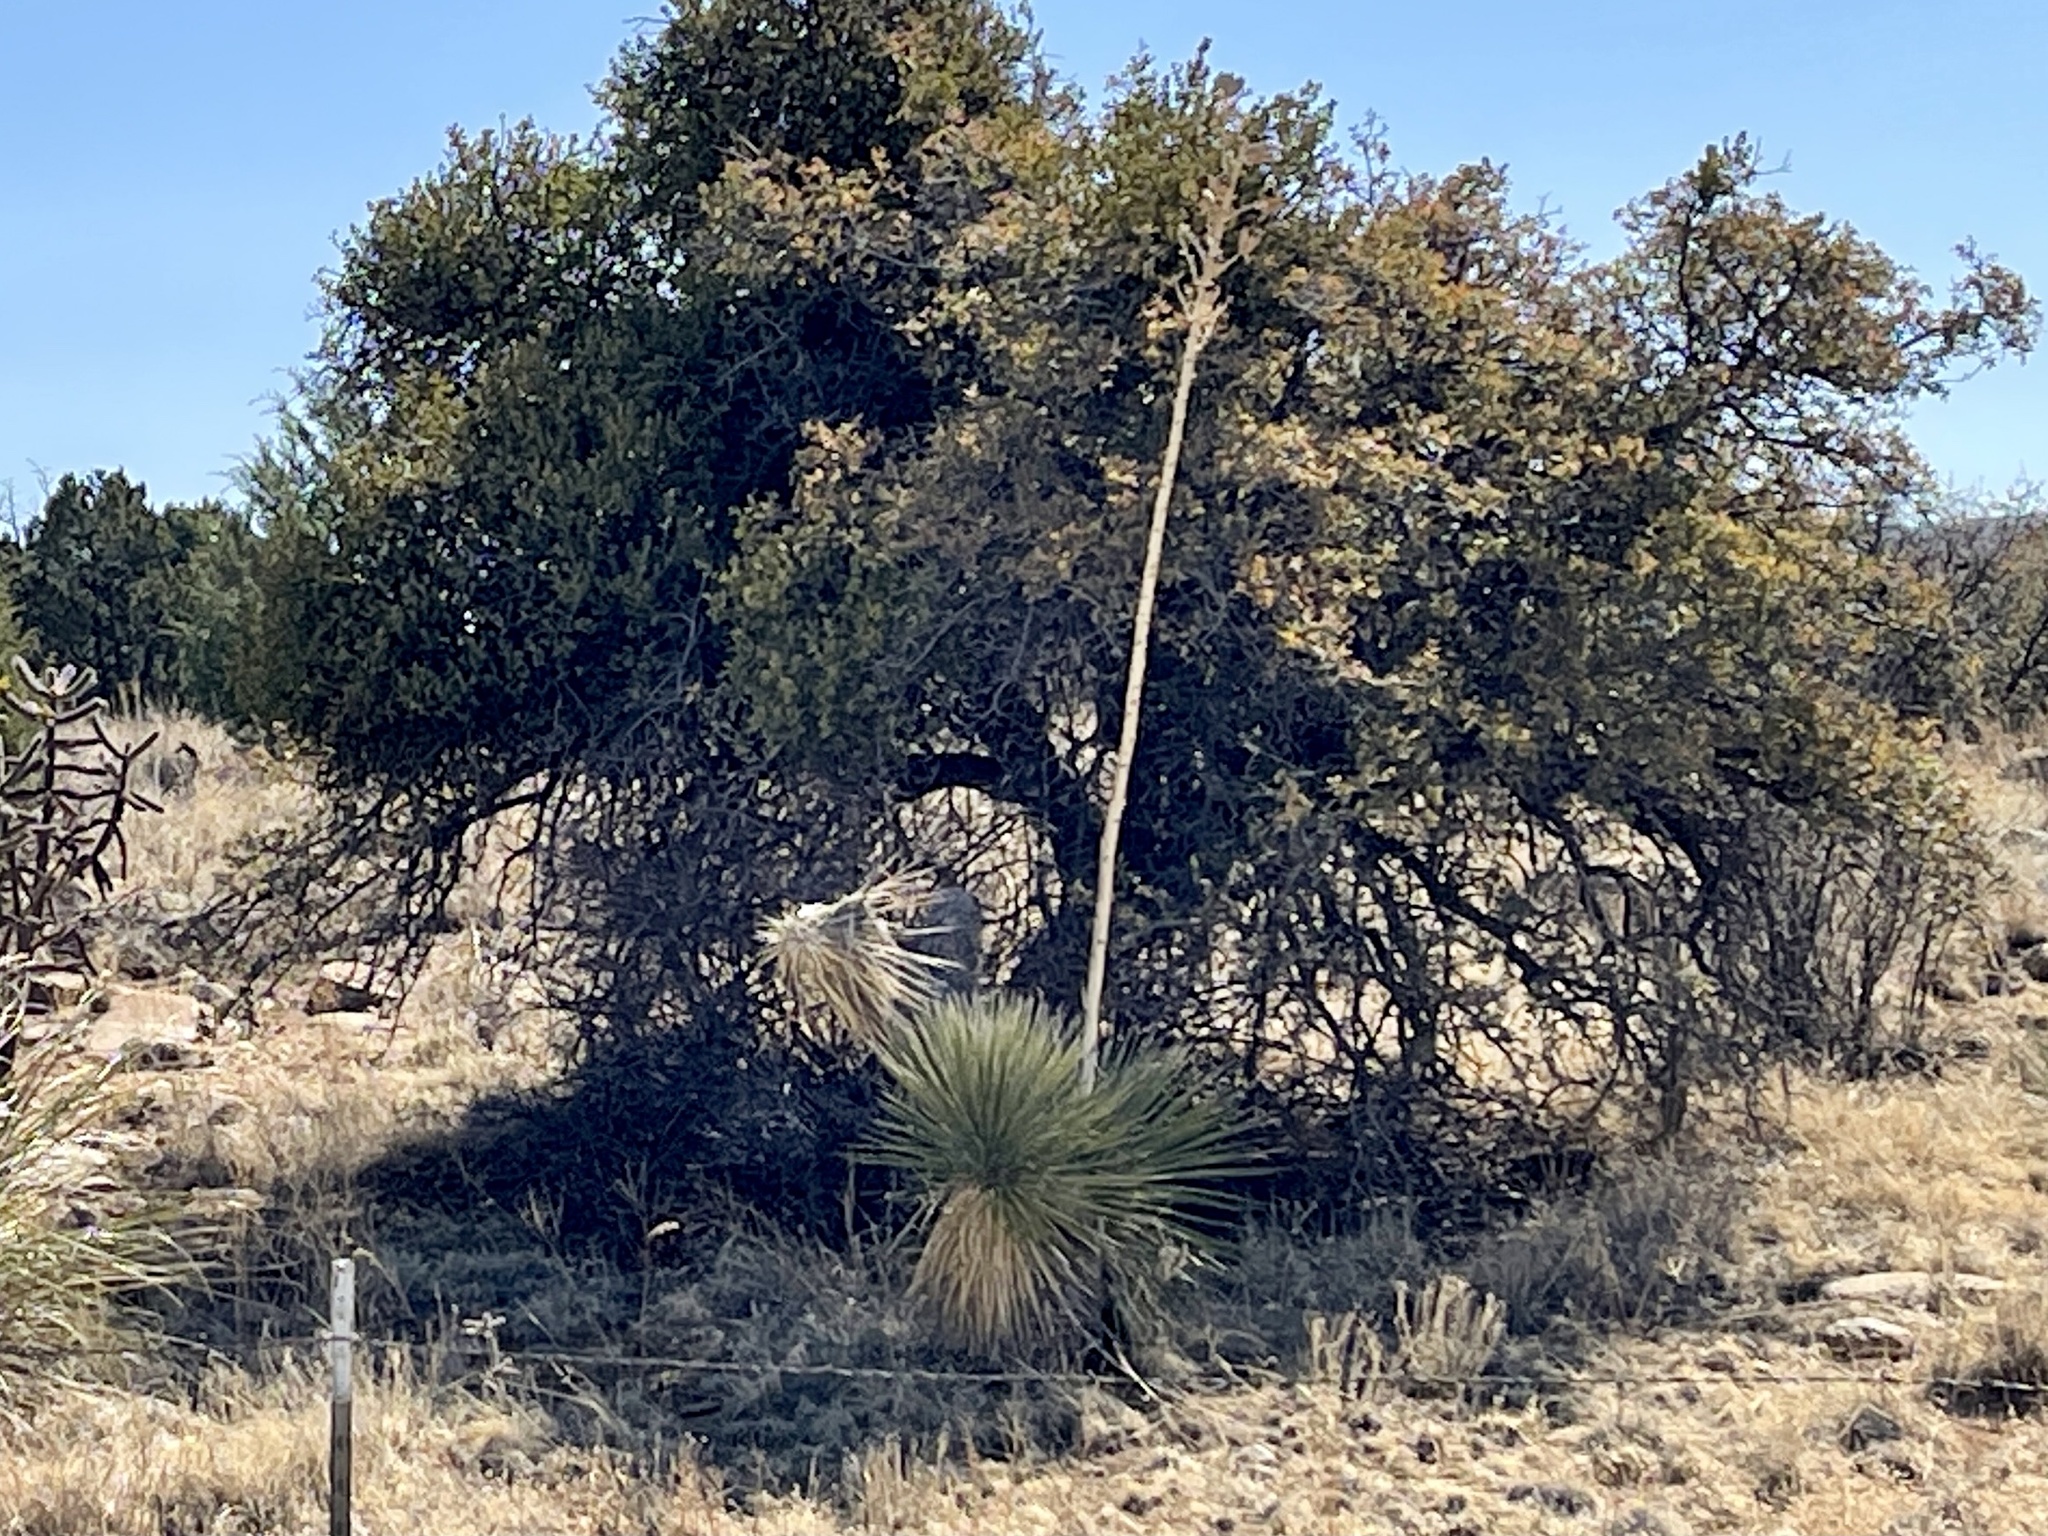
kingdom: Plantae
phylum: Tracheophyta
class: Liliopsida
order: Asparagales
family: Asparagaceae
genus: Yucca
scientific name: Yucca elata
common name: Palmella
